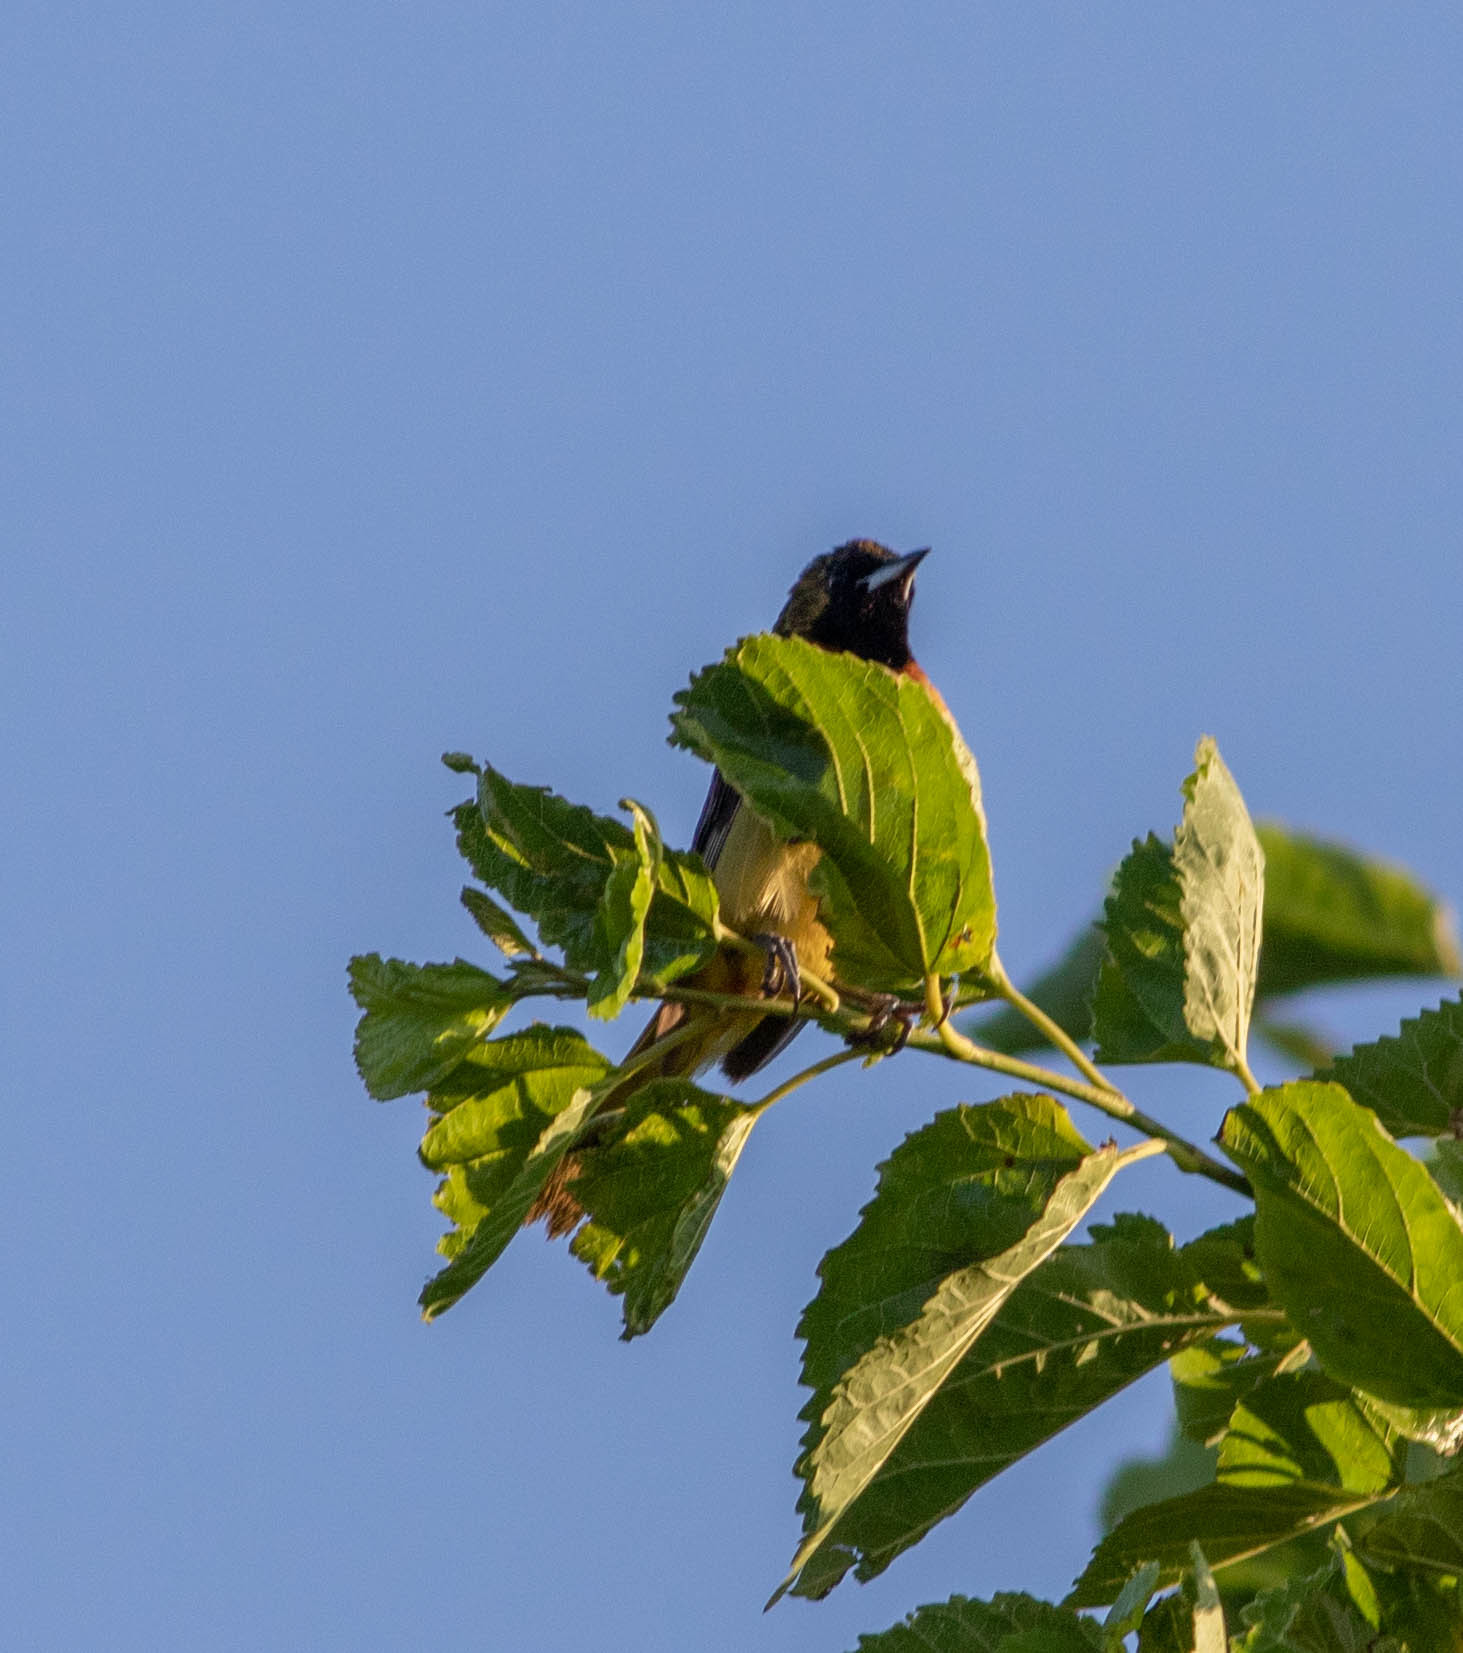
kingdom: Animalia
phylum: Chordata
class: Aves
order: Passeriformes
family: Icteridae
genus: Icterus
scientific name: Icterus spurius
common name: Orchard oriole
